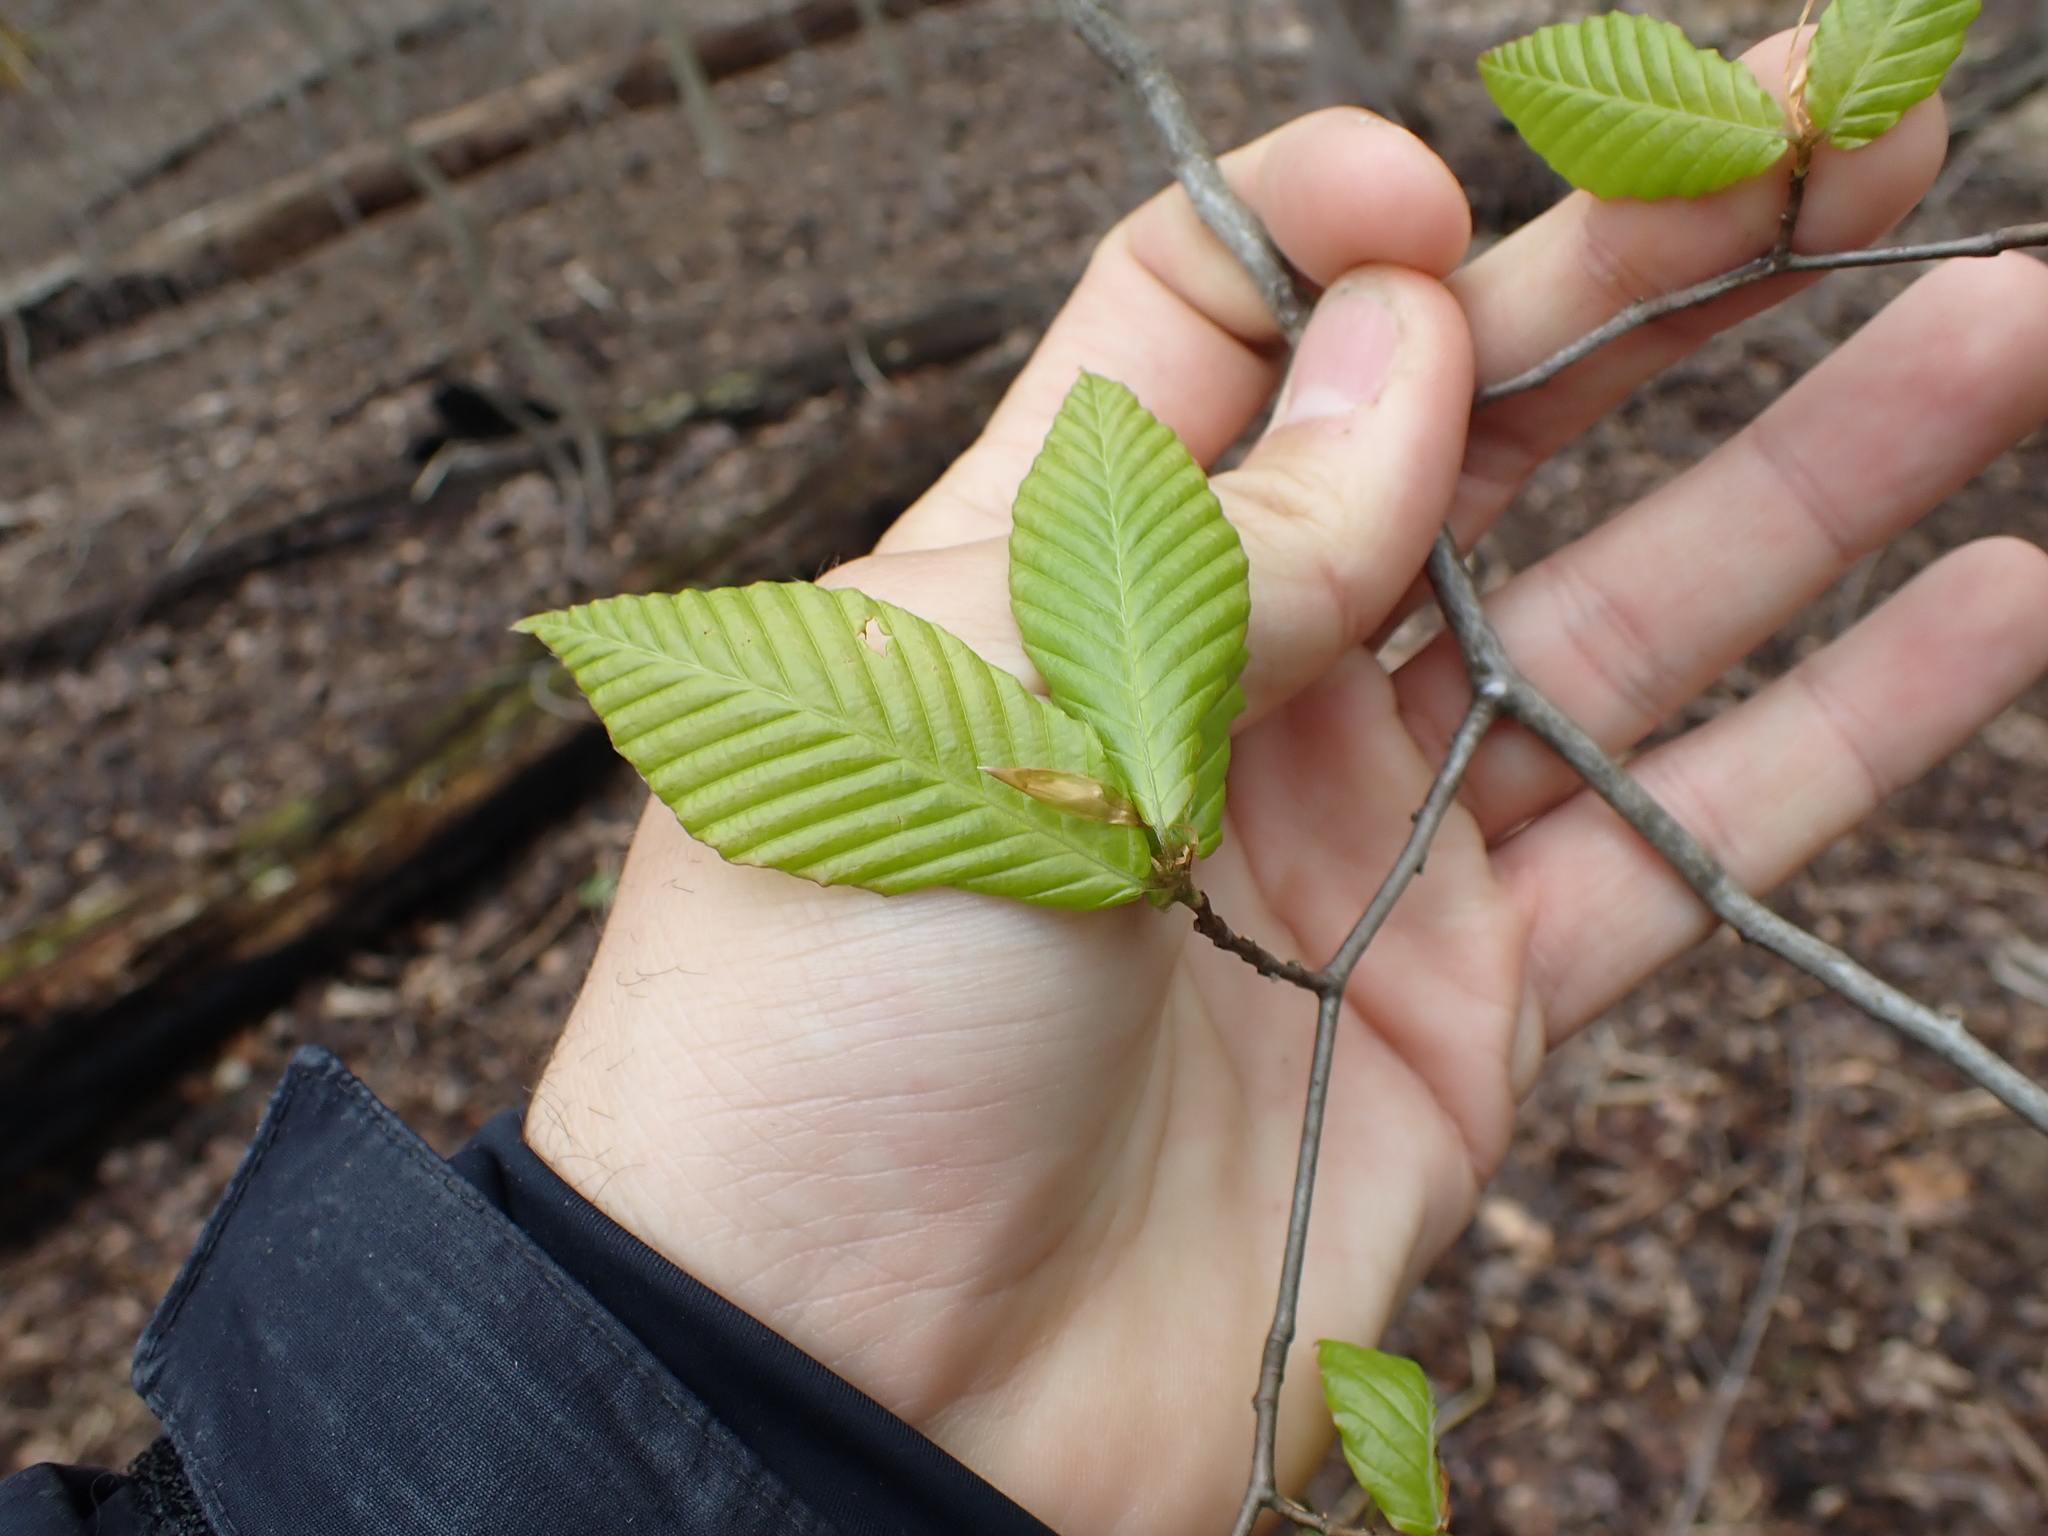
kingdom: Plantae
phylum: Tracheophyta
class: Magnoliopsida
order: Fagales
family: Fagaceae
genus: Fagus
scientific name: Fagus grandifolia
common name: American beech
